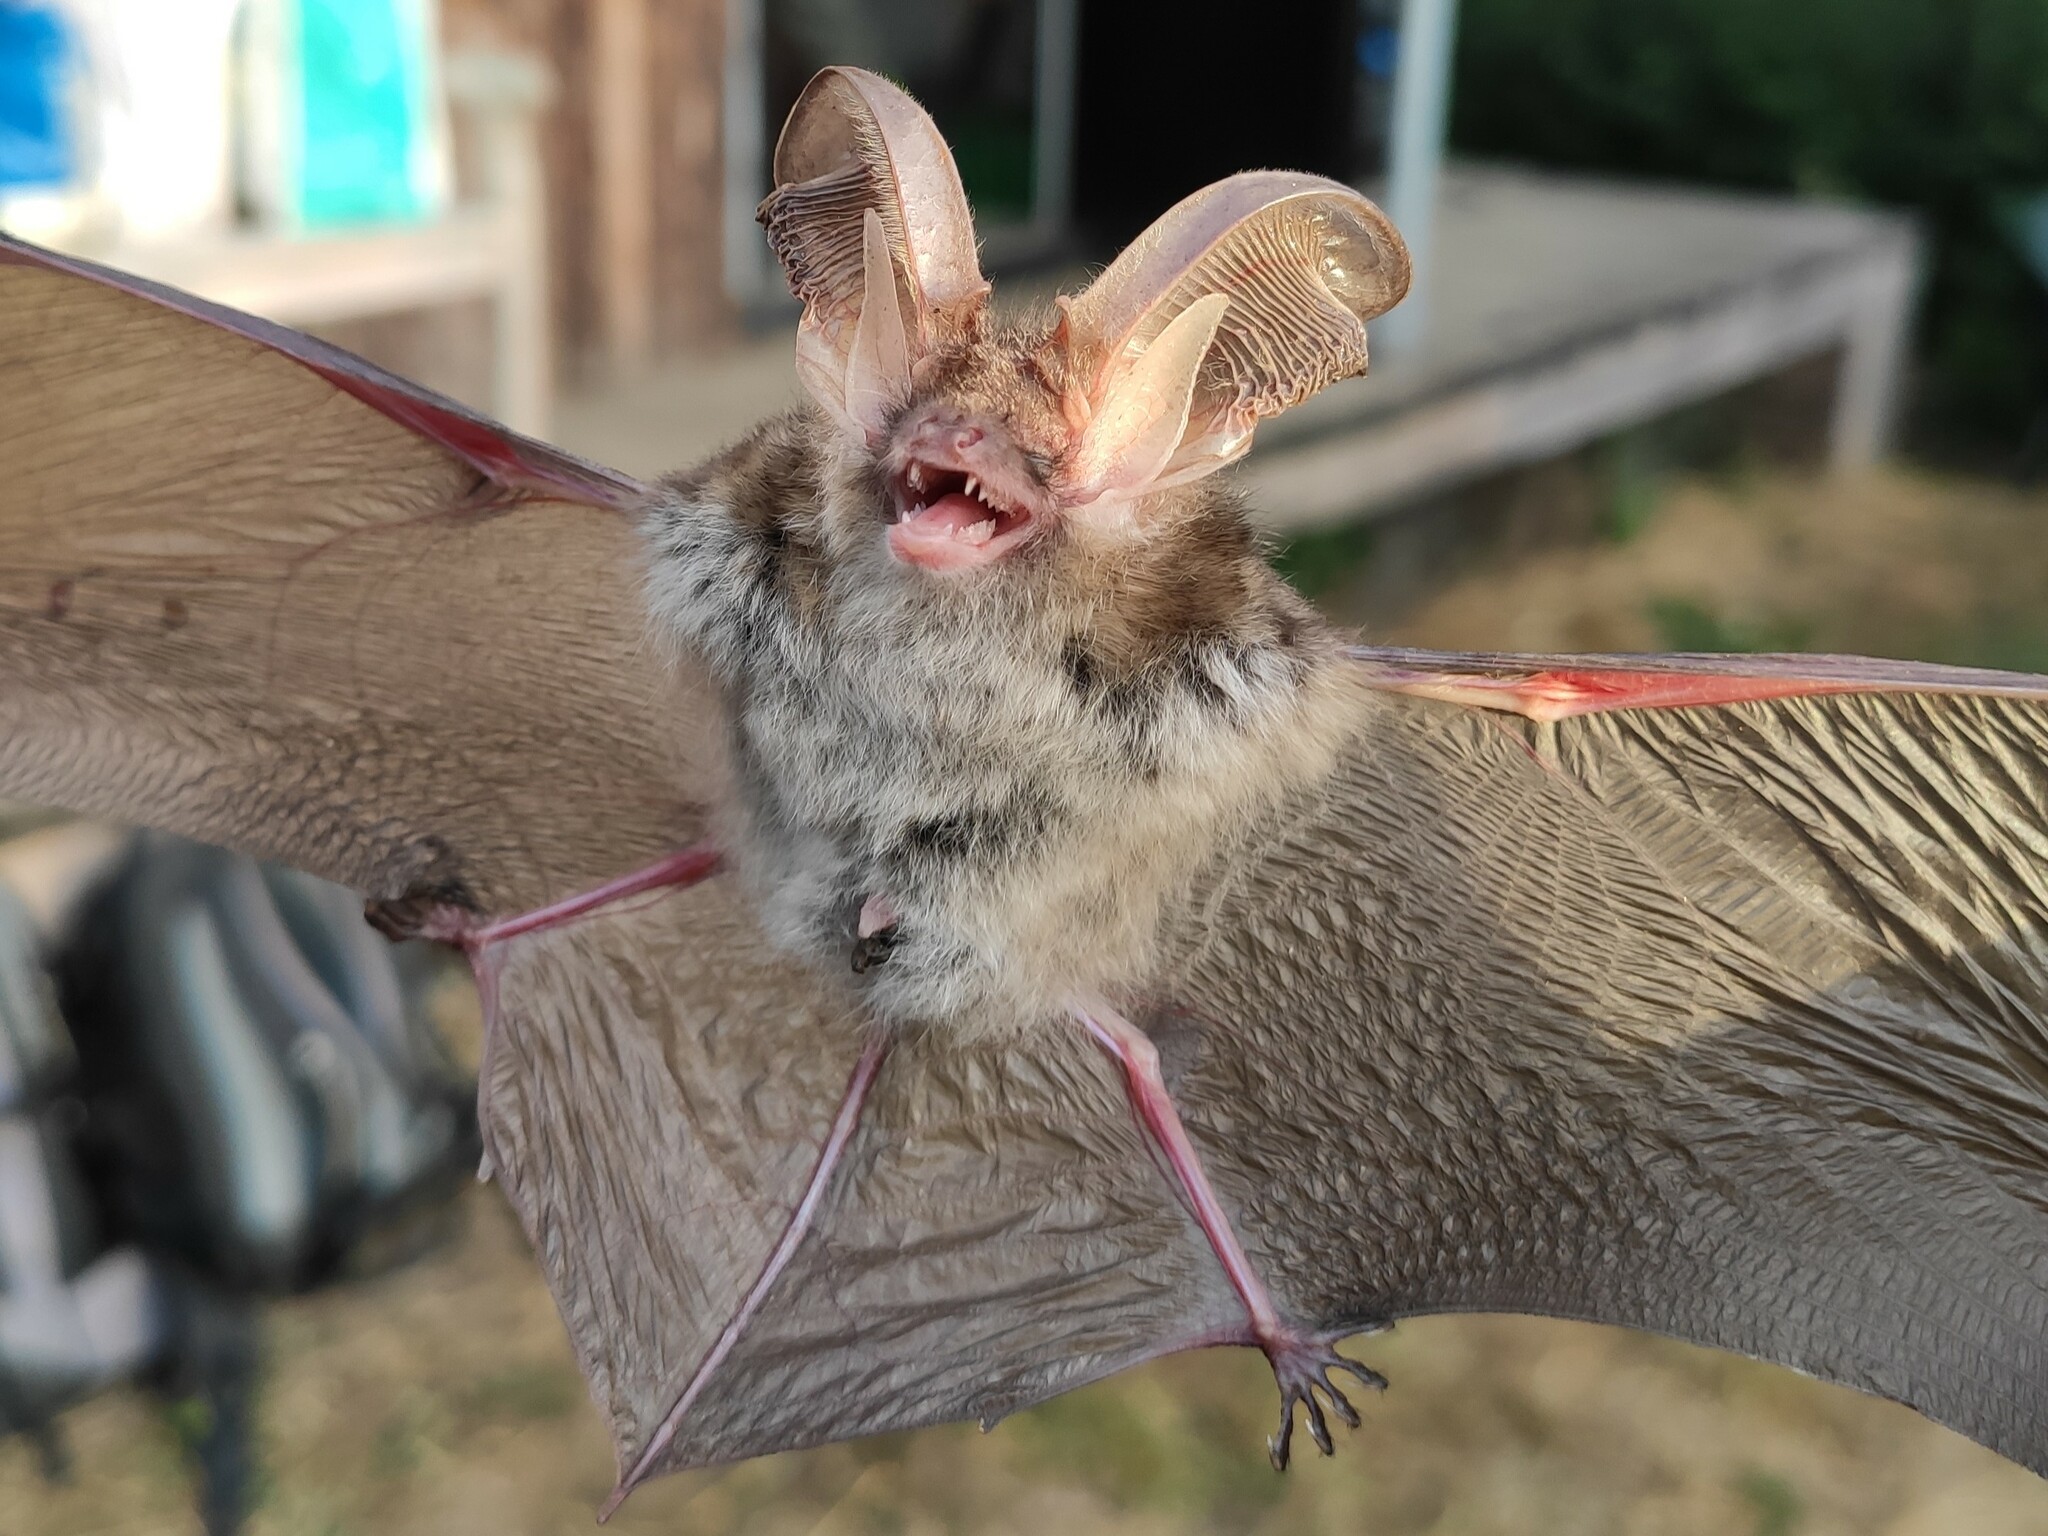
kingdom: Animalia
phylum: Chordata
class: Mammalia
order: Chiroptera
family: Vespertilionidae
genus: Plecotus
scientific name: Plecotus auritus
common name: Brown long-eared bat
